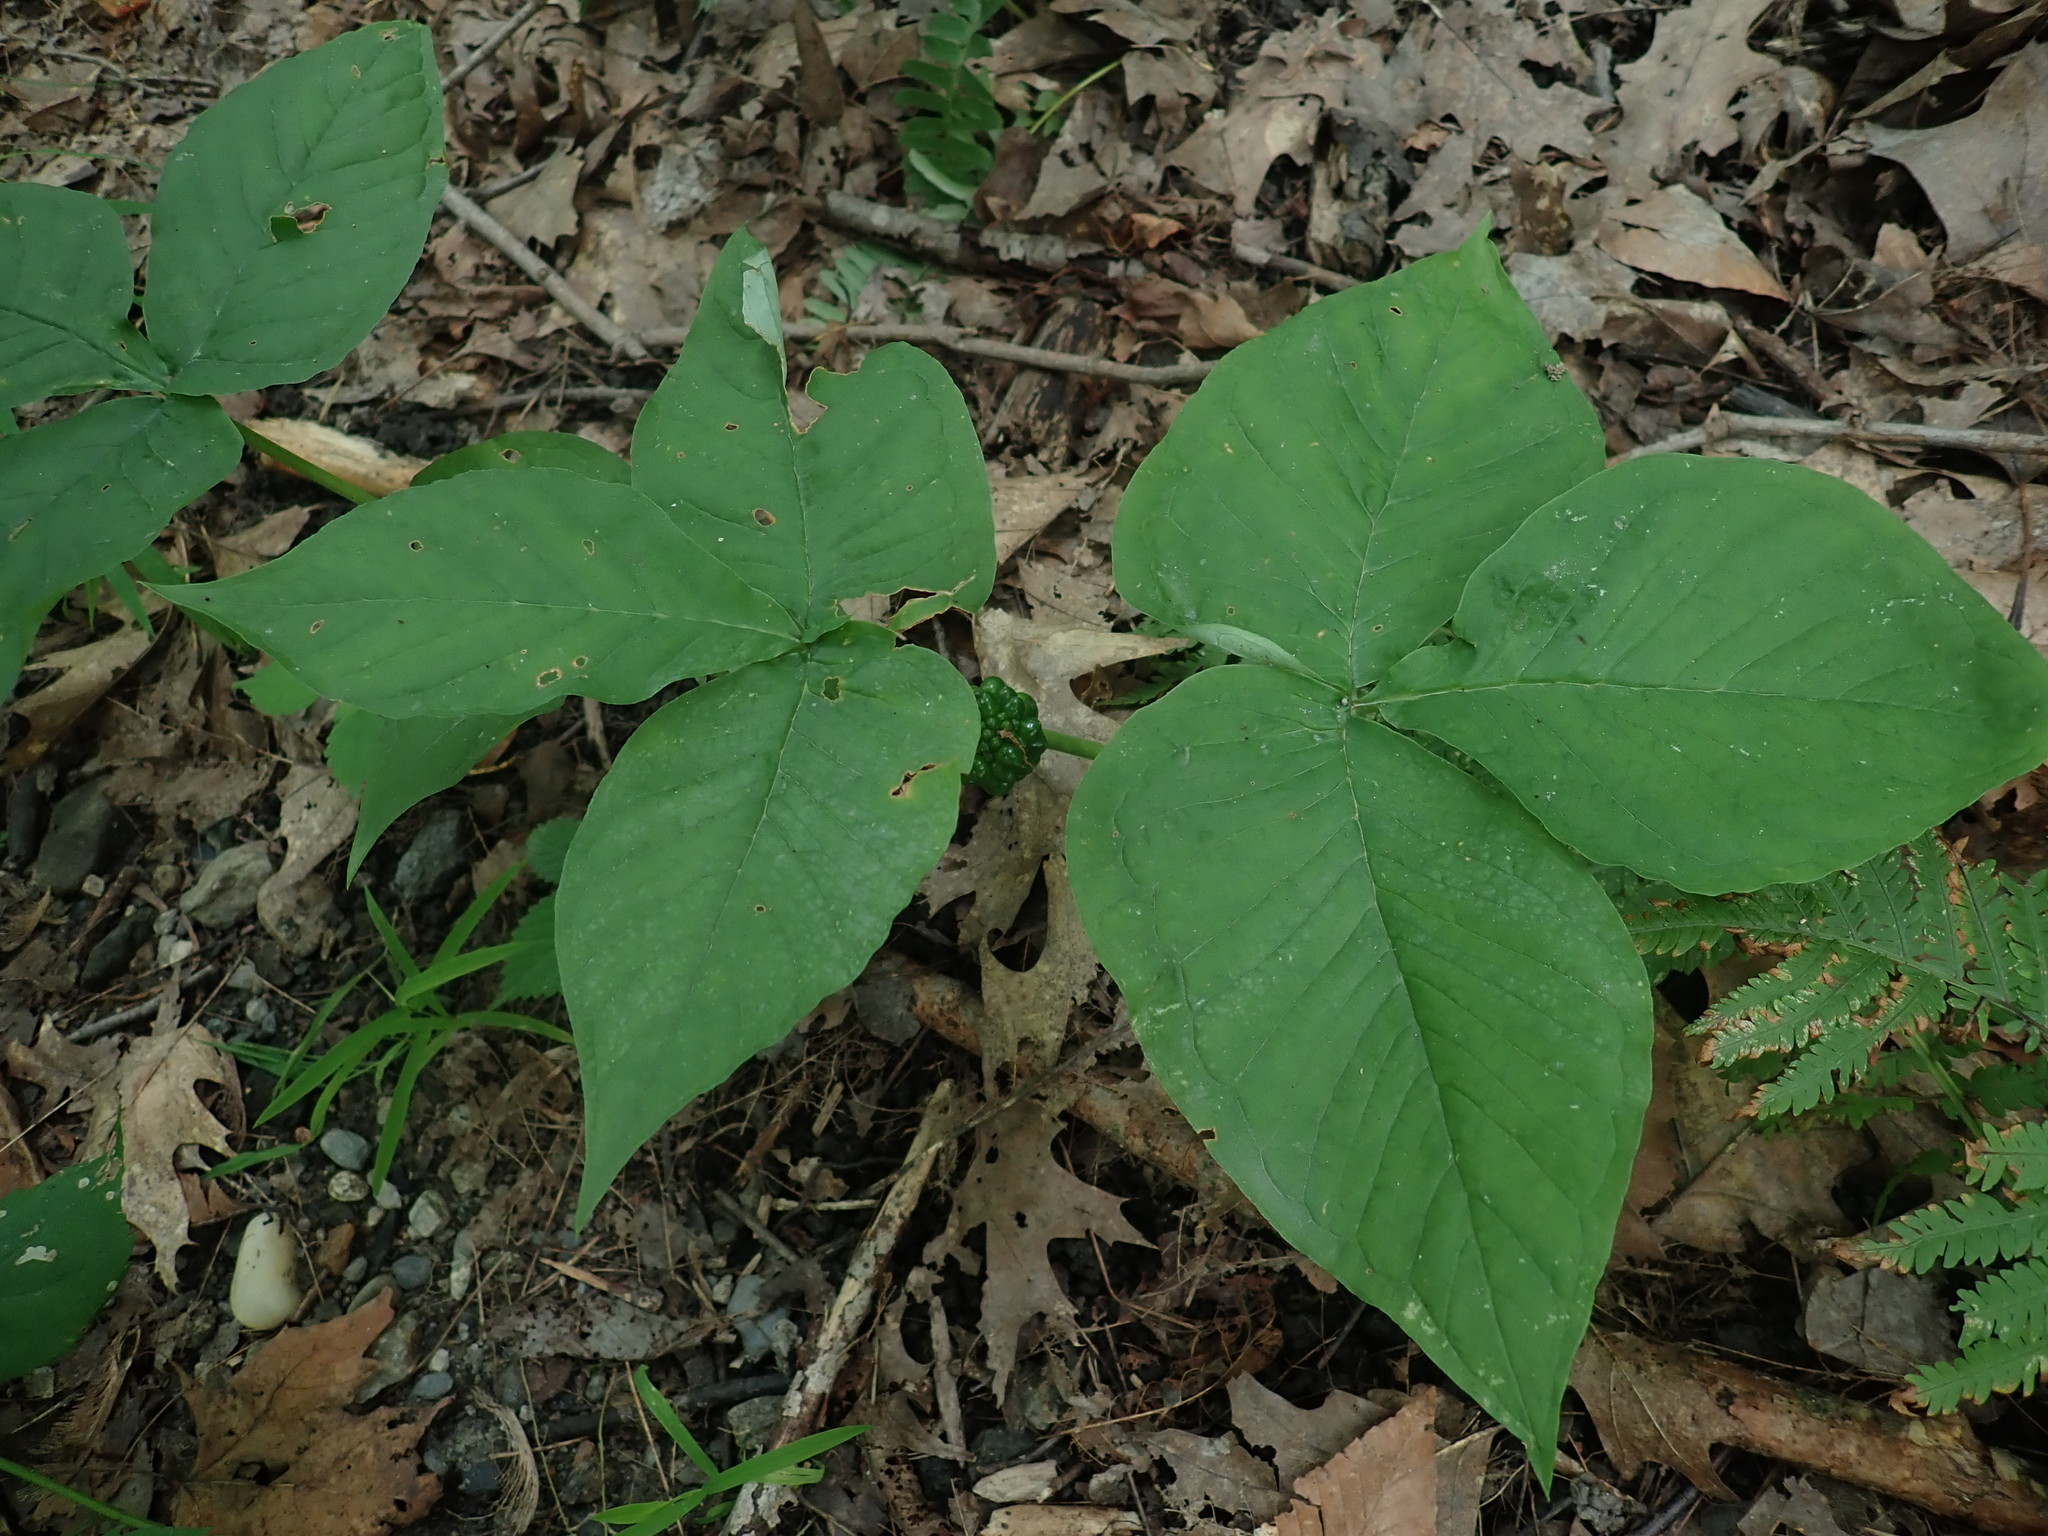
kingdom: Plantae
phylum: Tracheophyta
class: Liliopsida
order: Alismatales
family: Araceae
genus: Arisaema
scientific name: Arisaema triphyllum
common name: Jack-in-the-pulpit
